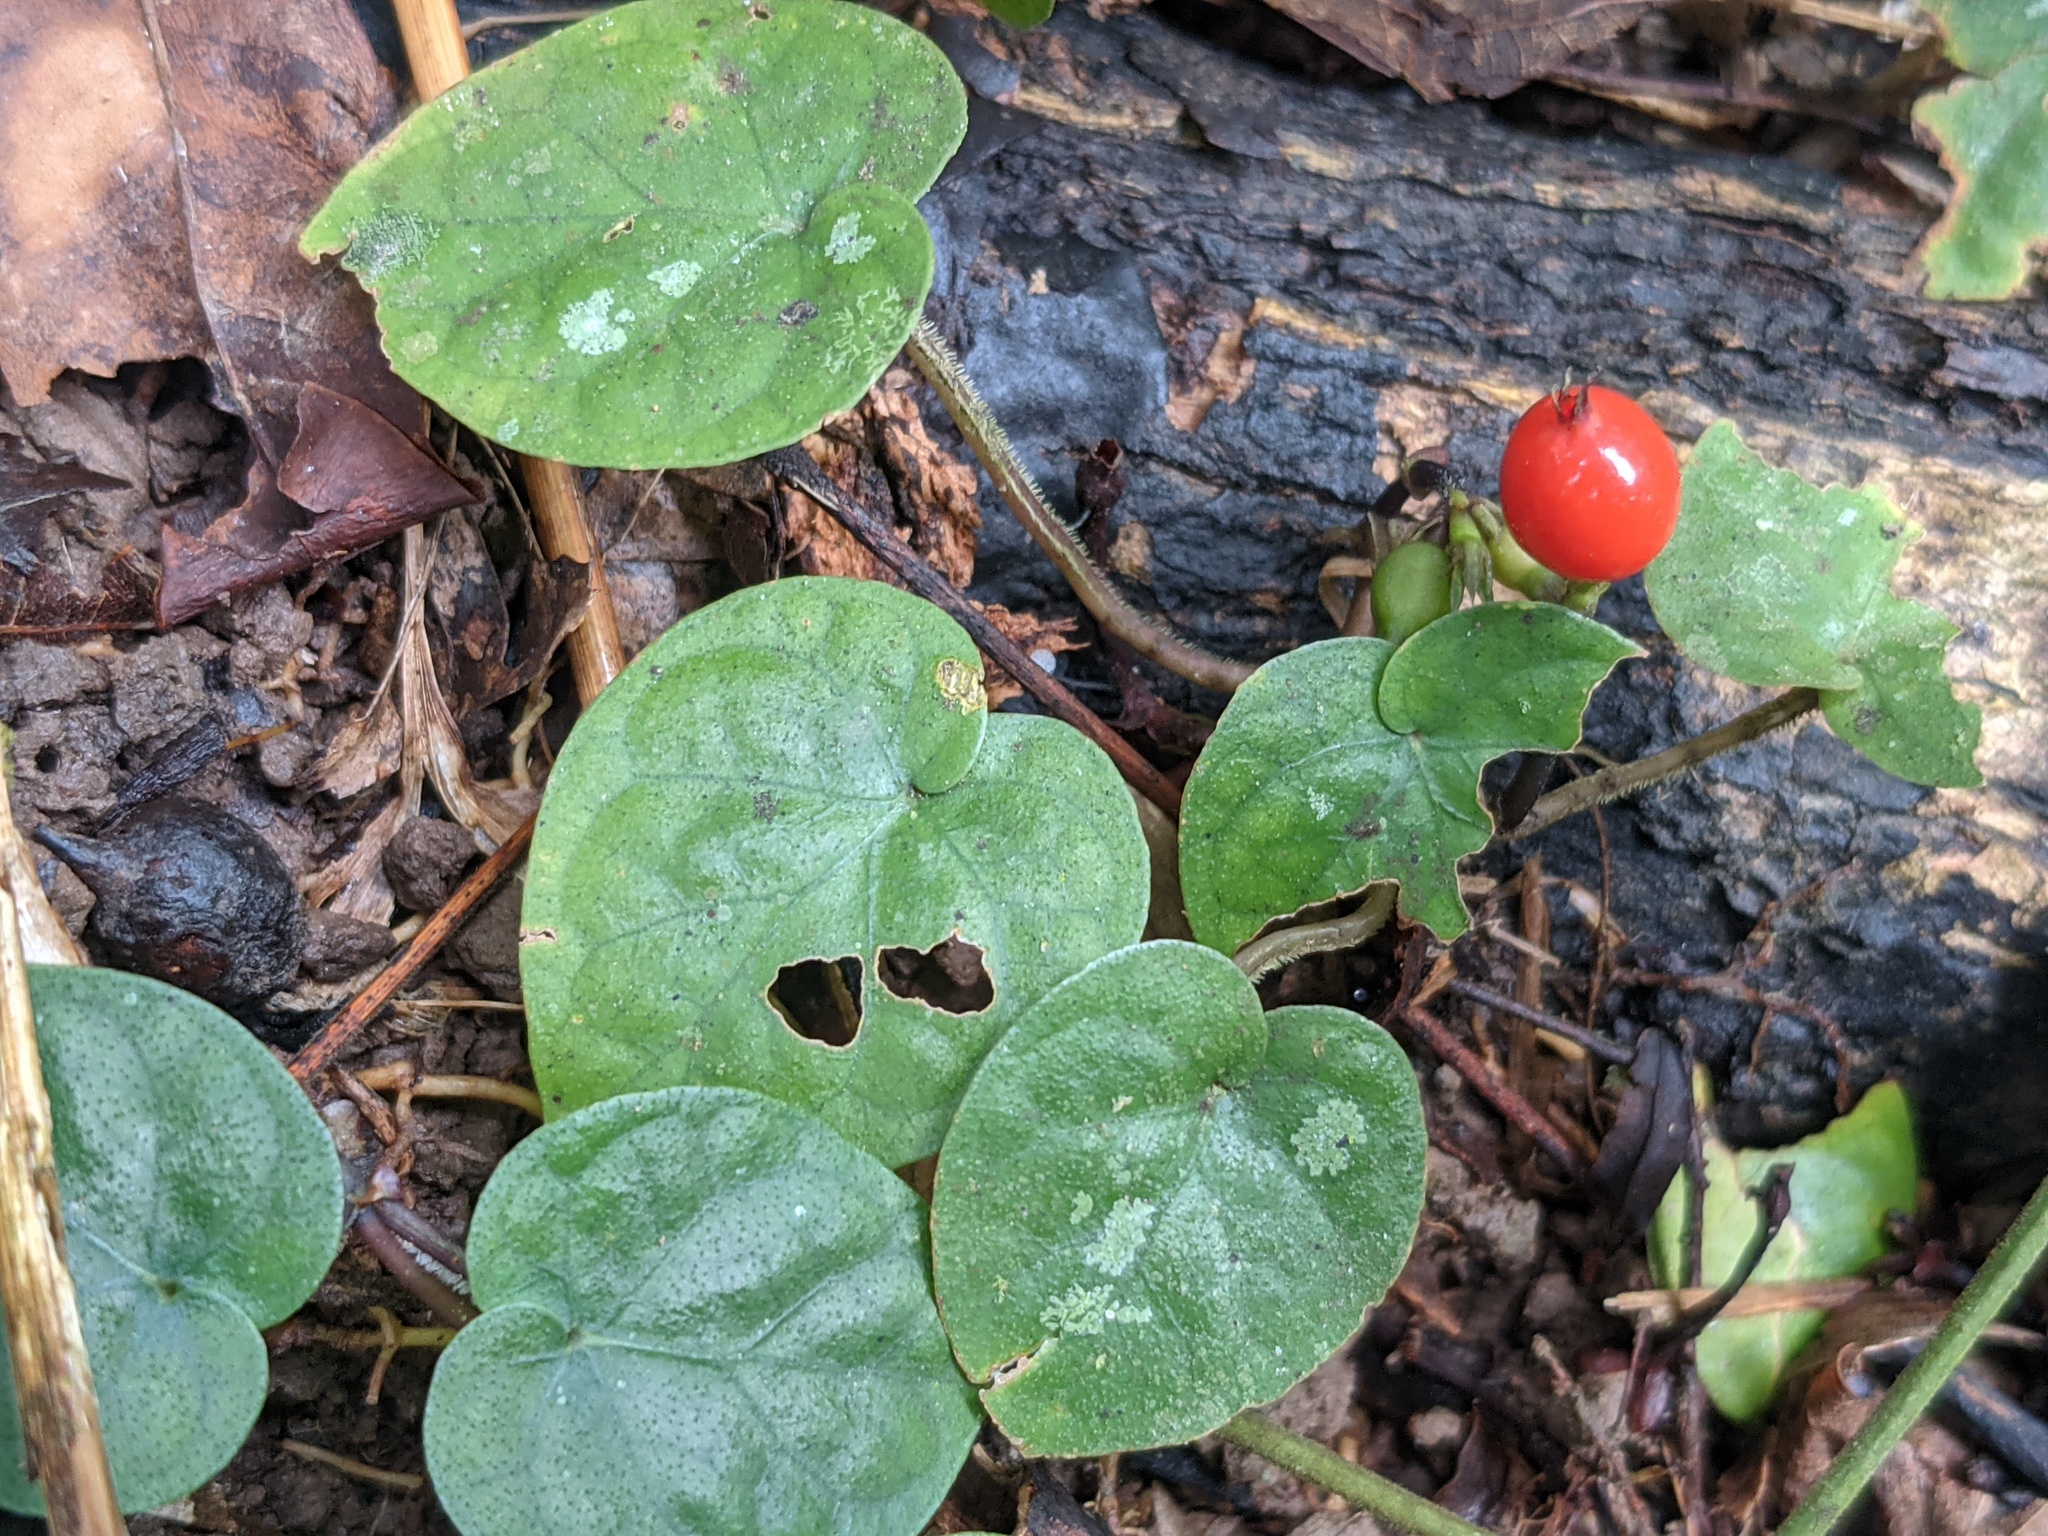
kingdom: Plantae
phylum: Tracheophyta
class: Magnoliopsida
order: Gentianales
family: Rubiaceae
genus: Geophila
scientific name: Geophila repens
